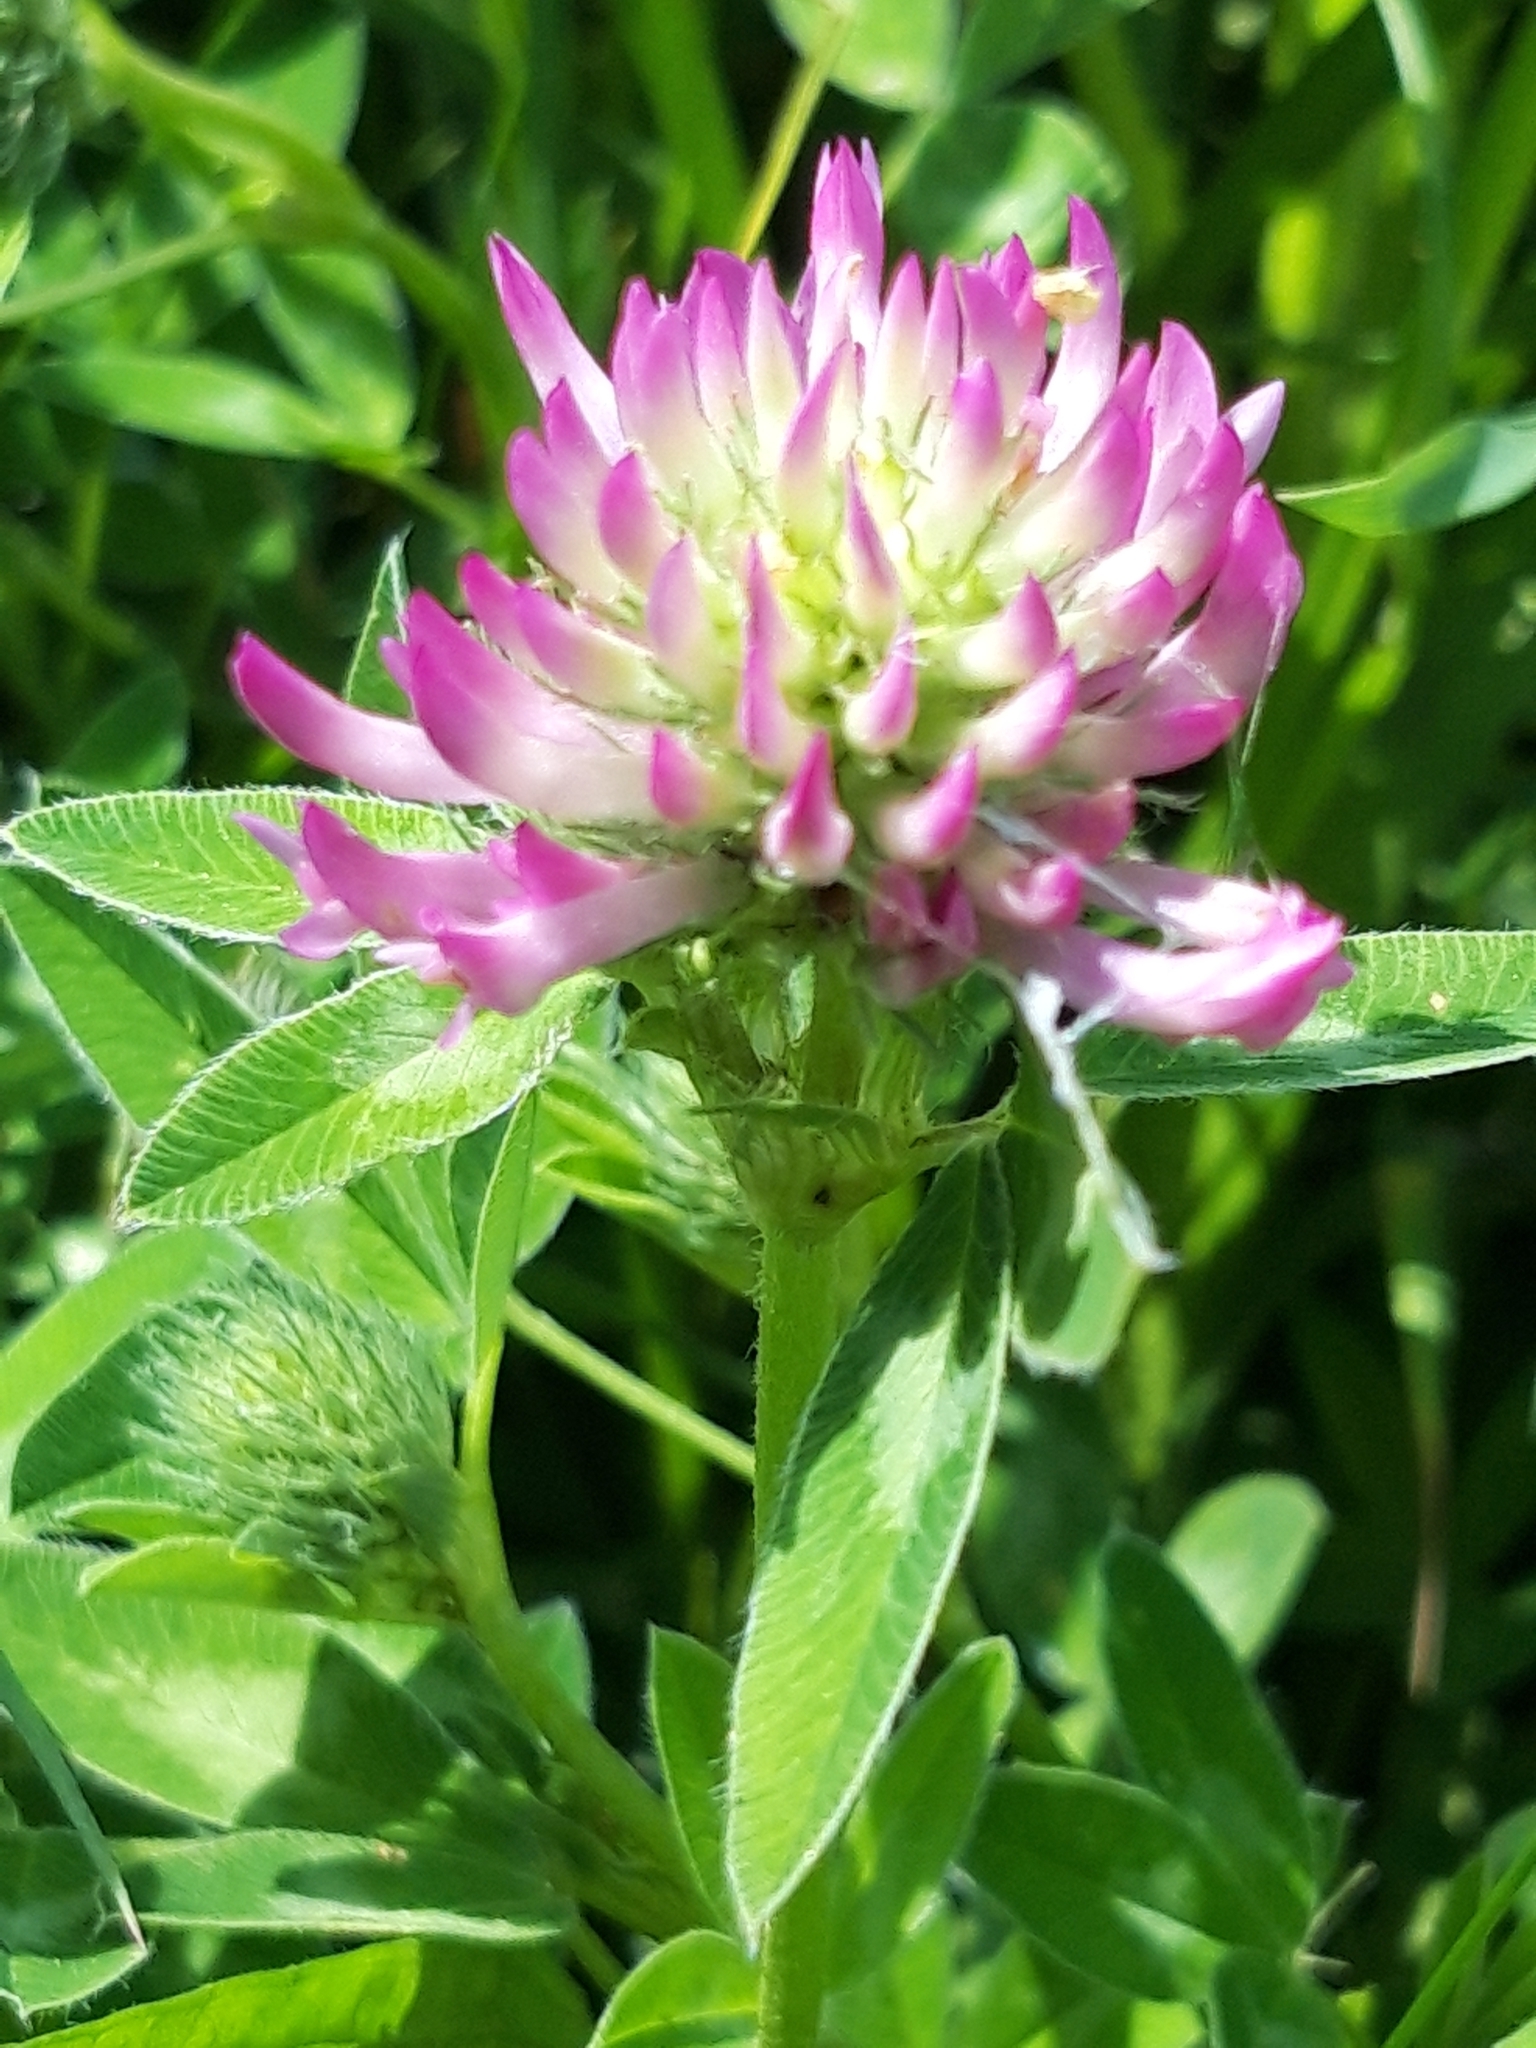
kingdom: Plantae
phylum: Tracheophyta
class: Magnoliopsida
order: Fabales
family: Fabaceae
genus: Trifolium
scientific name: Trifolium medium
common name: Zigzag clover
